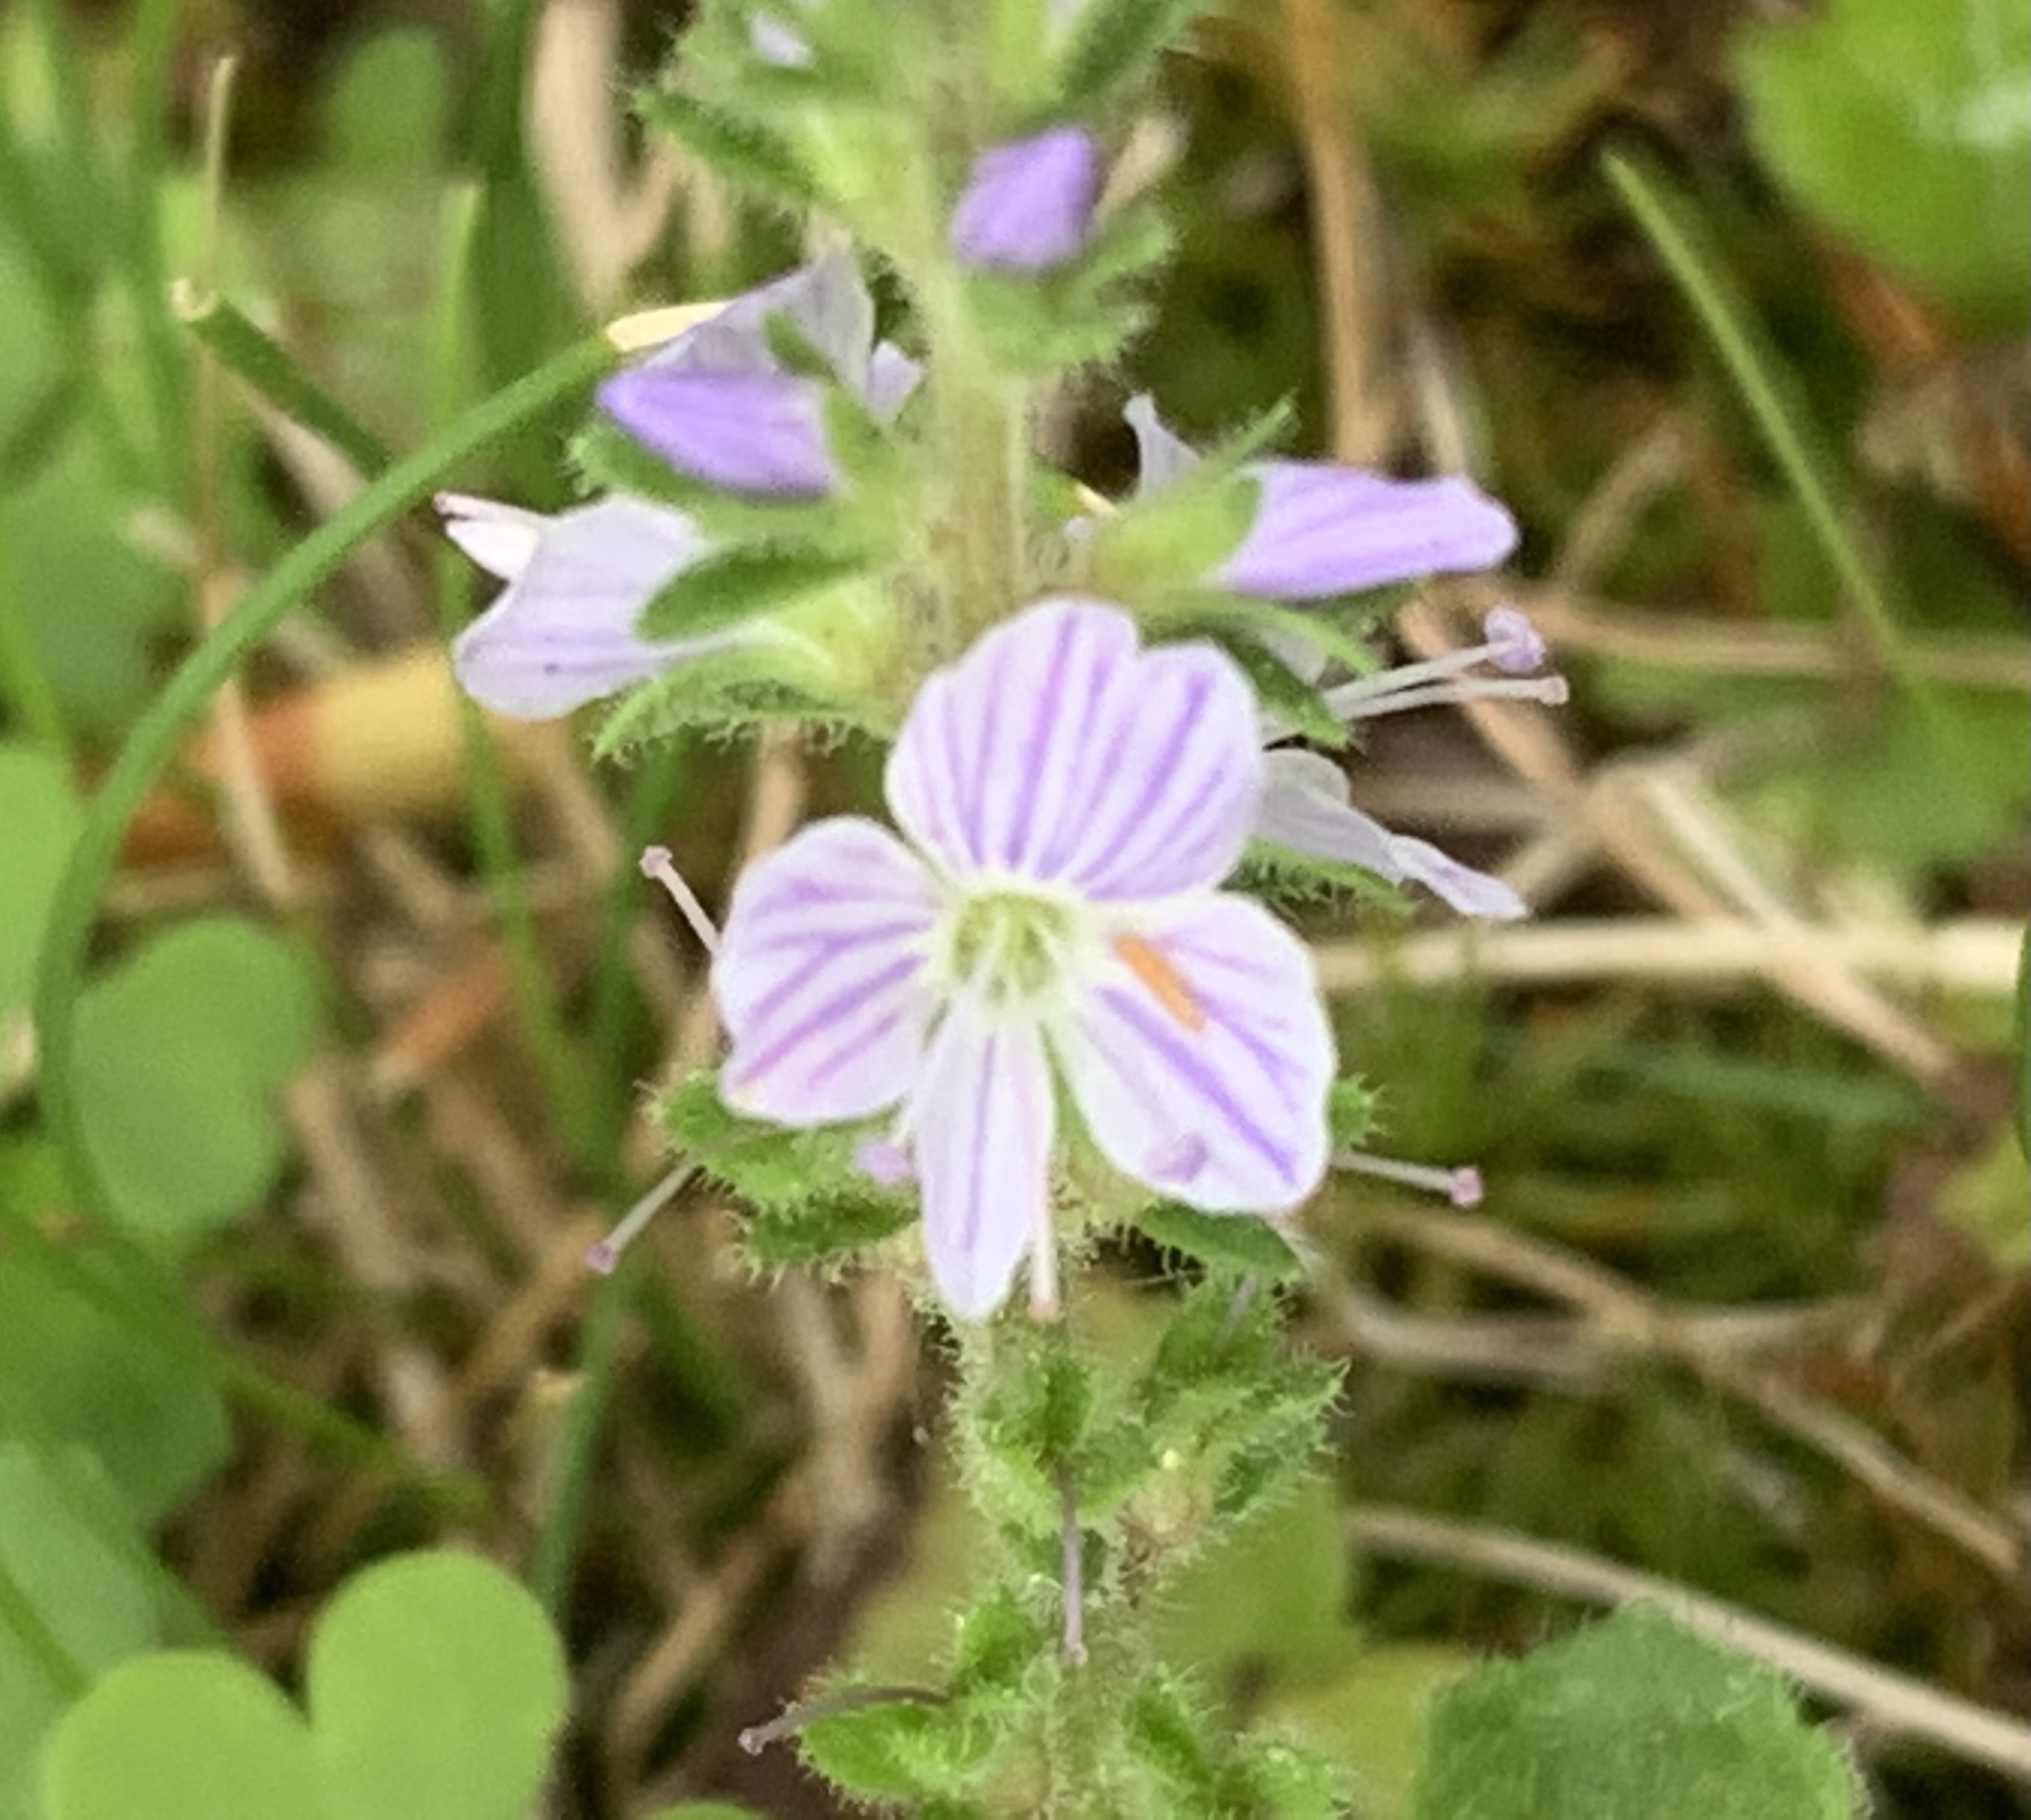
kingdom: Plantae
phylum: Tracheophyta
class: Magnoliopsida
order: Lamiales
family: Plantaginaceae
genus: Veronica
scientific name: Veronica officinalis
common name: Common speedwell
